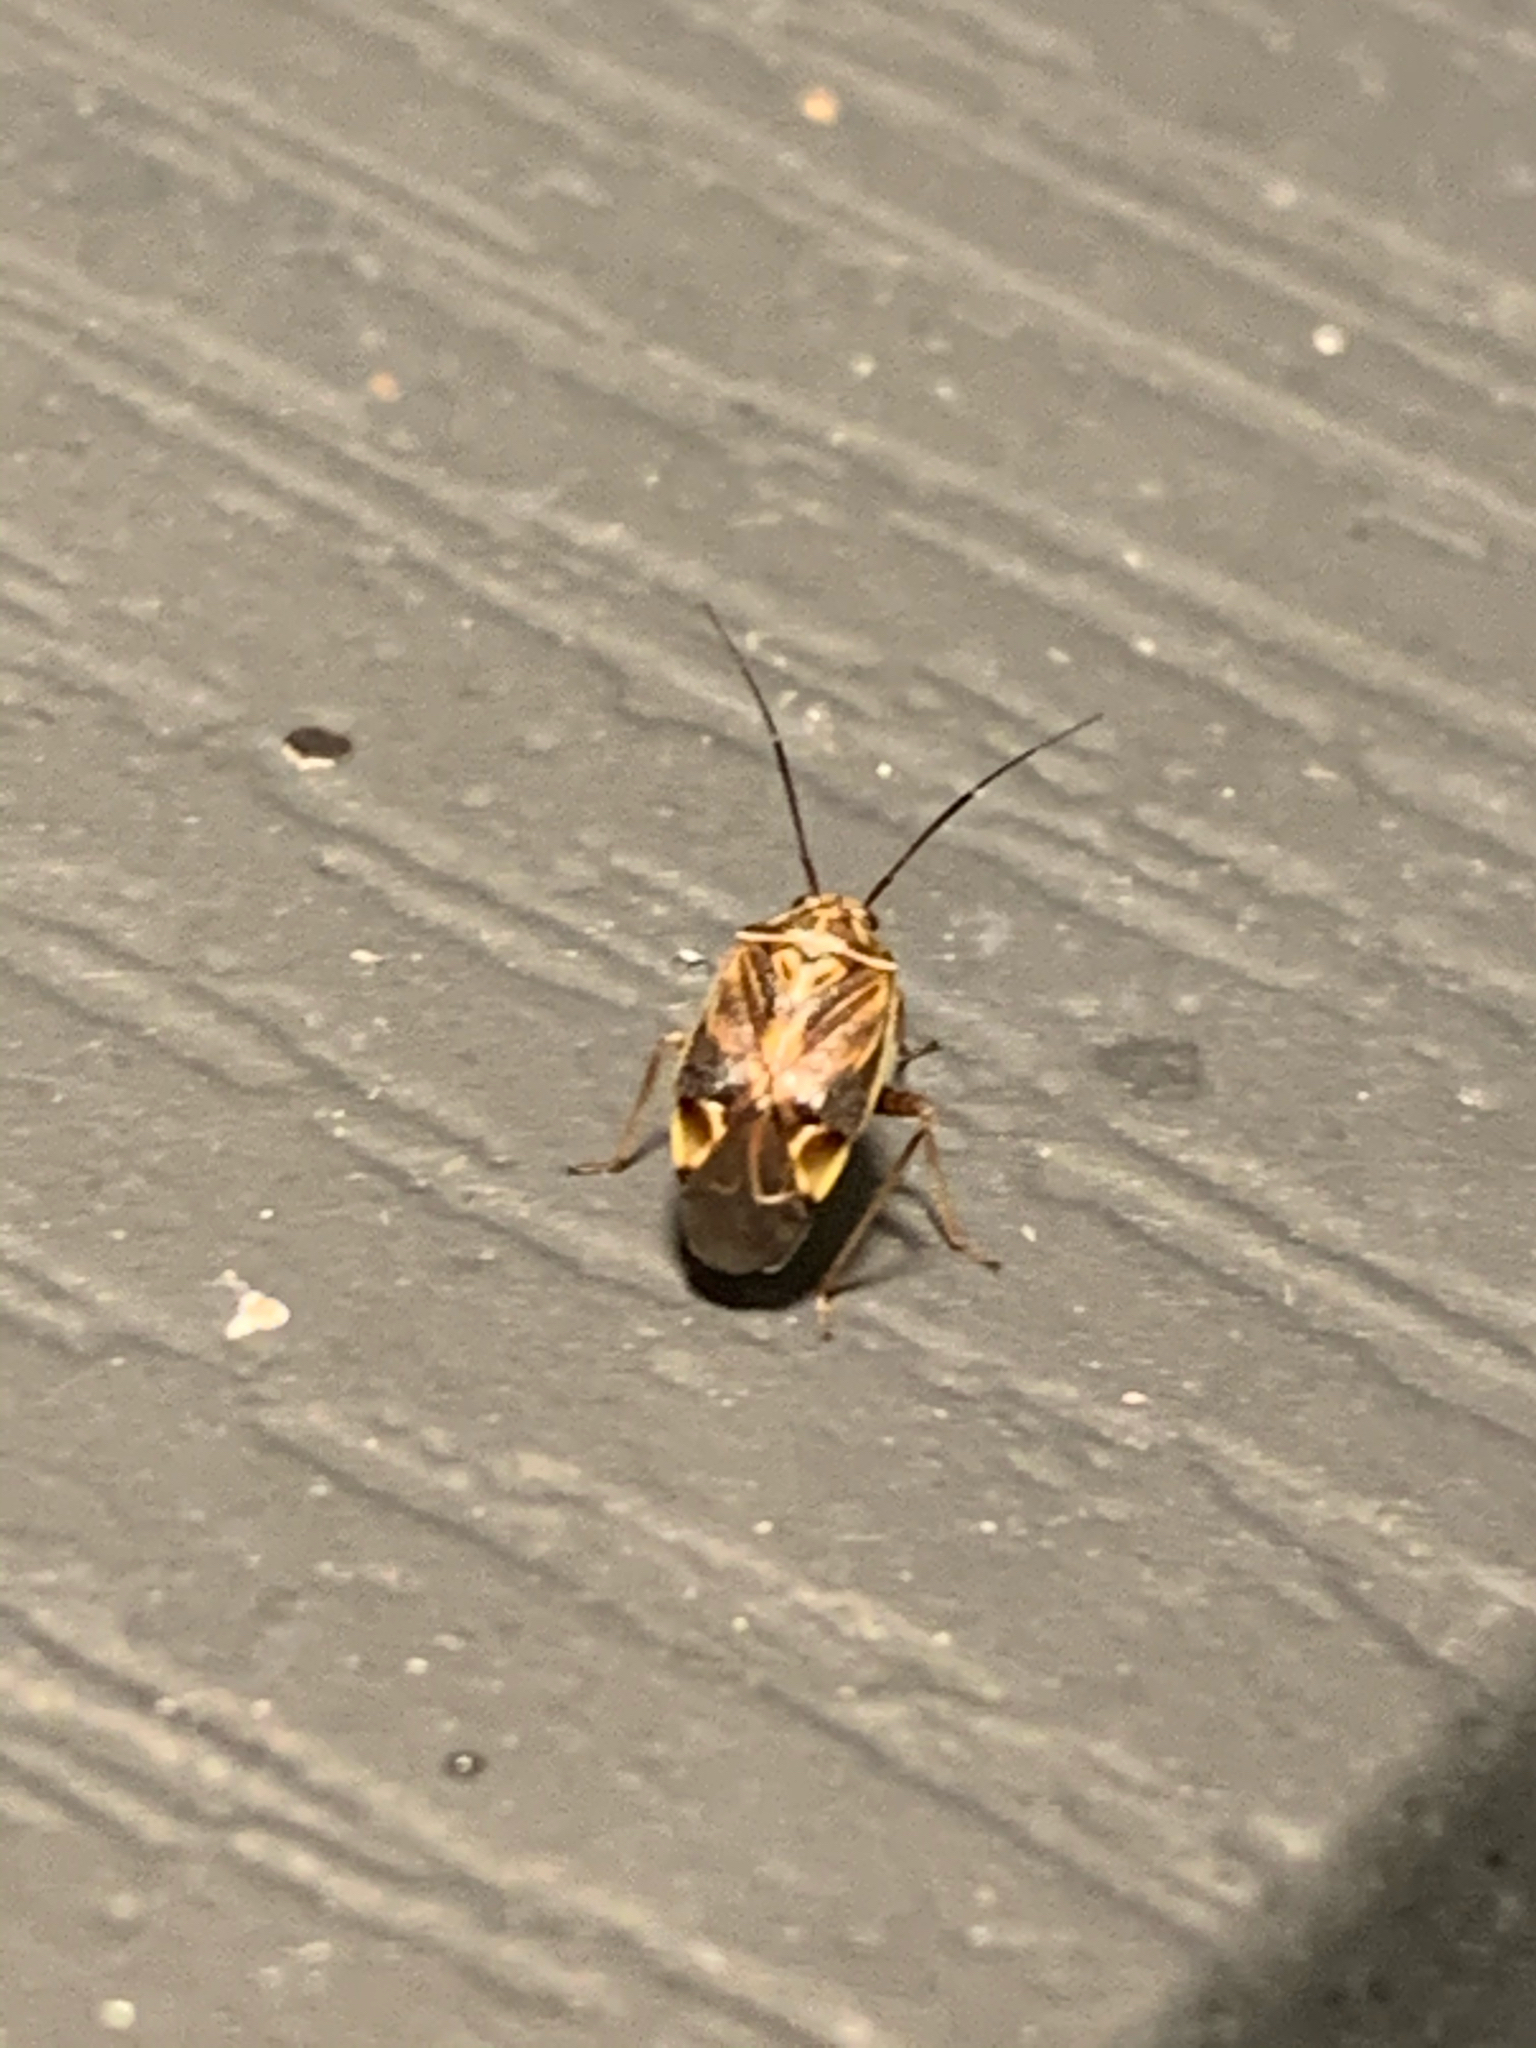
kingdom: Animalia
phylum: Arthropoda
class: Insecta
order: Hemiptera
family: Miridae
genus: Lygus
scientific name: Lygus lineolaris
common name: North american tarnished plant bug
